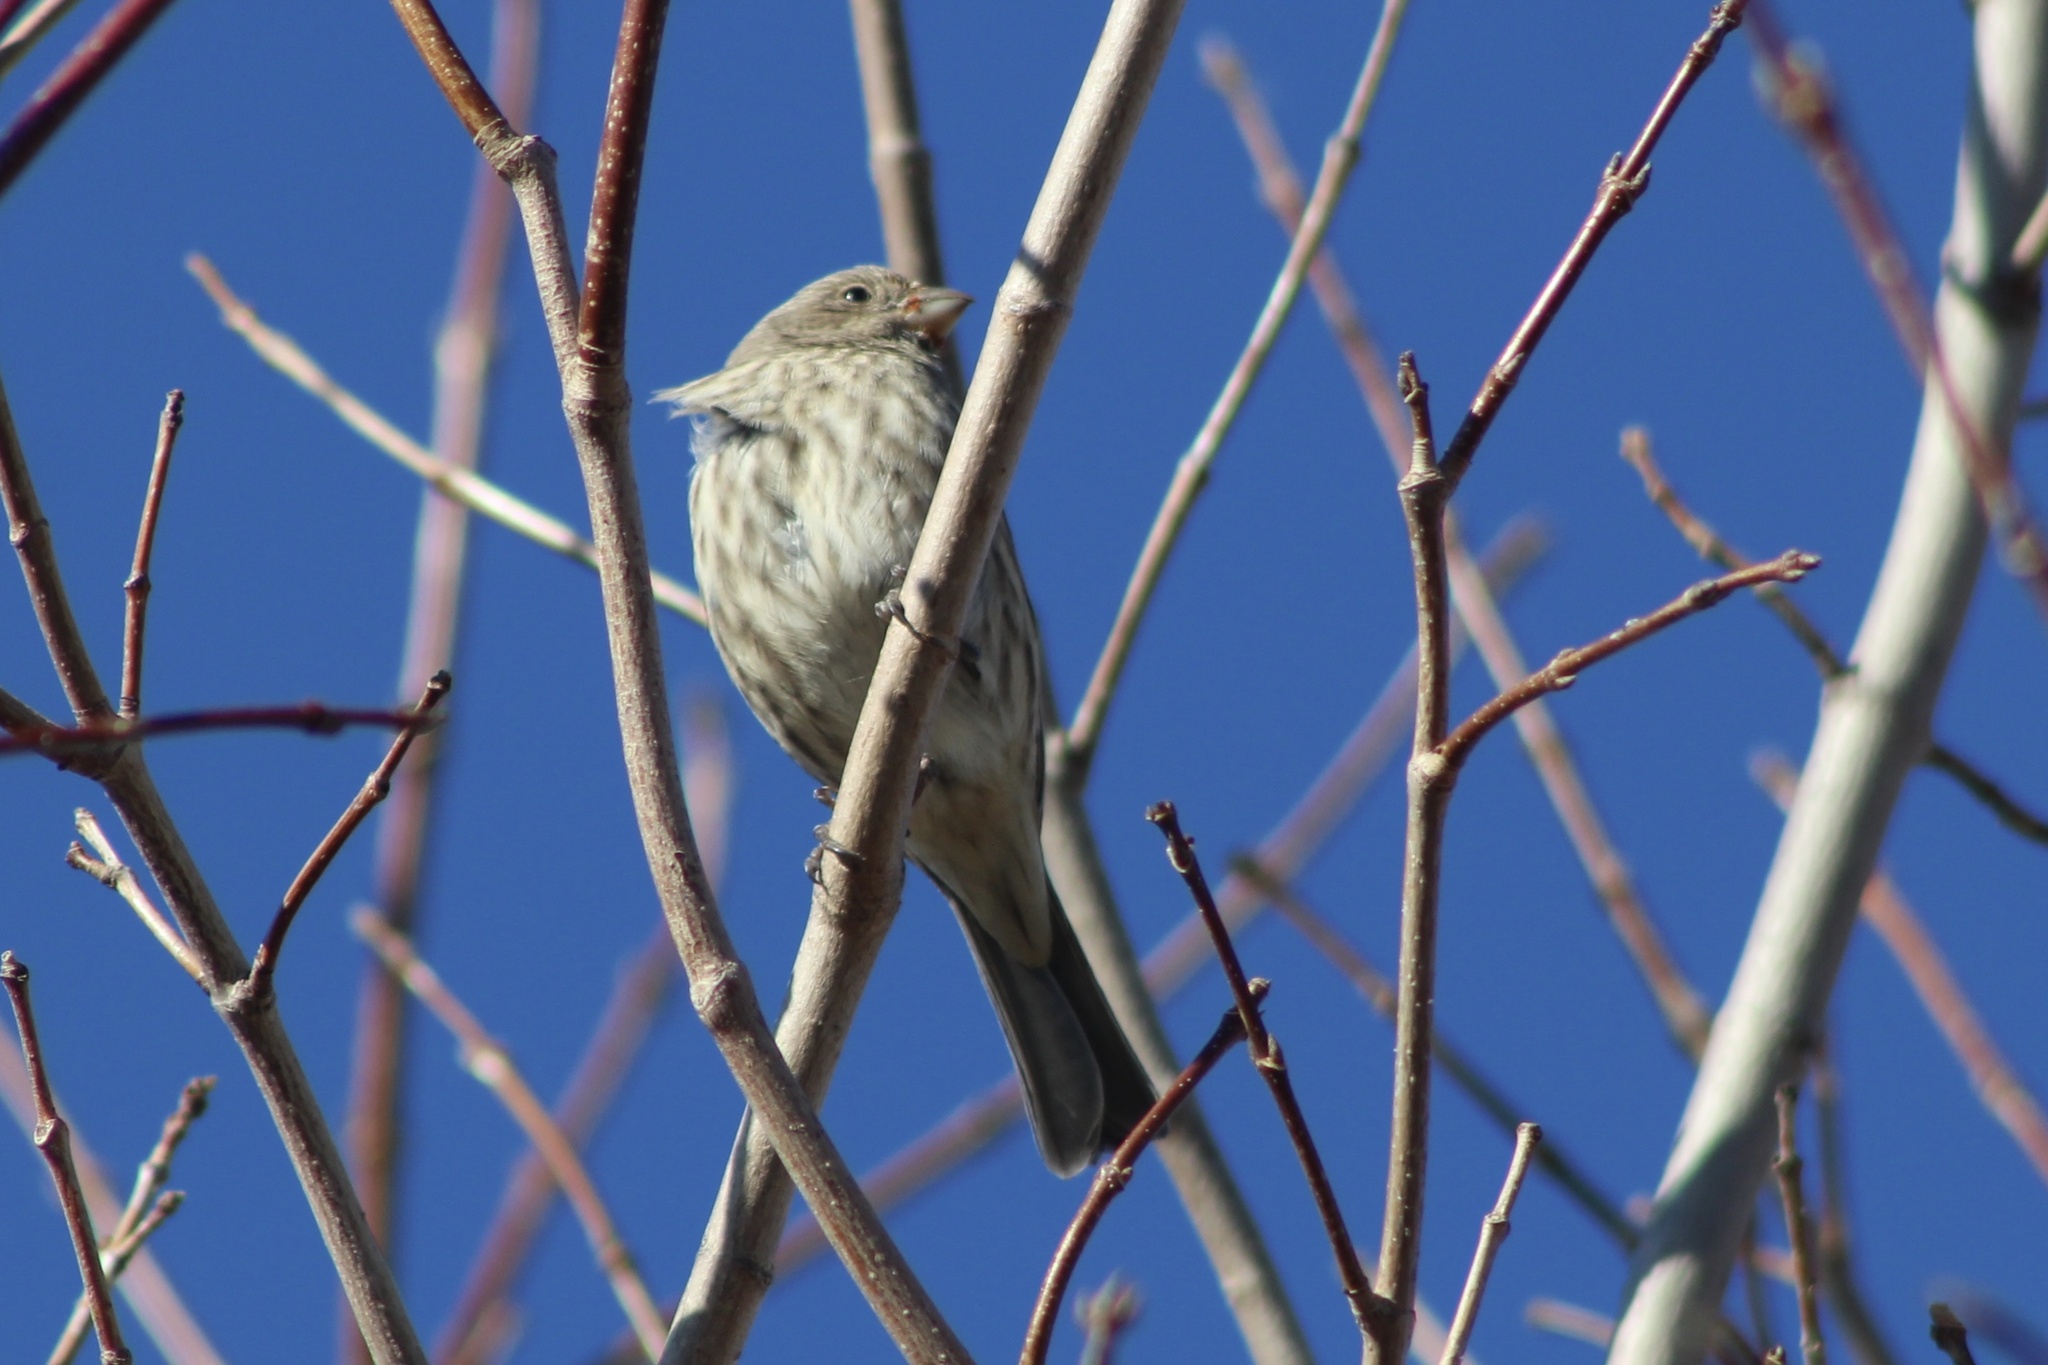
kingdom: Animalia
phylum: Chordata
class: Aves
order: Passeriformes
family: Fringillidae
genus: Haemorhous
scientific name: Haemorhous mexicanus
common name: House finch
